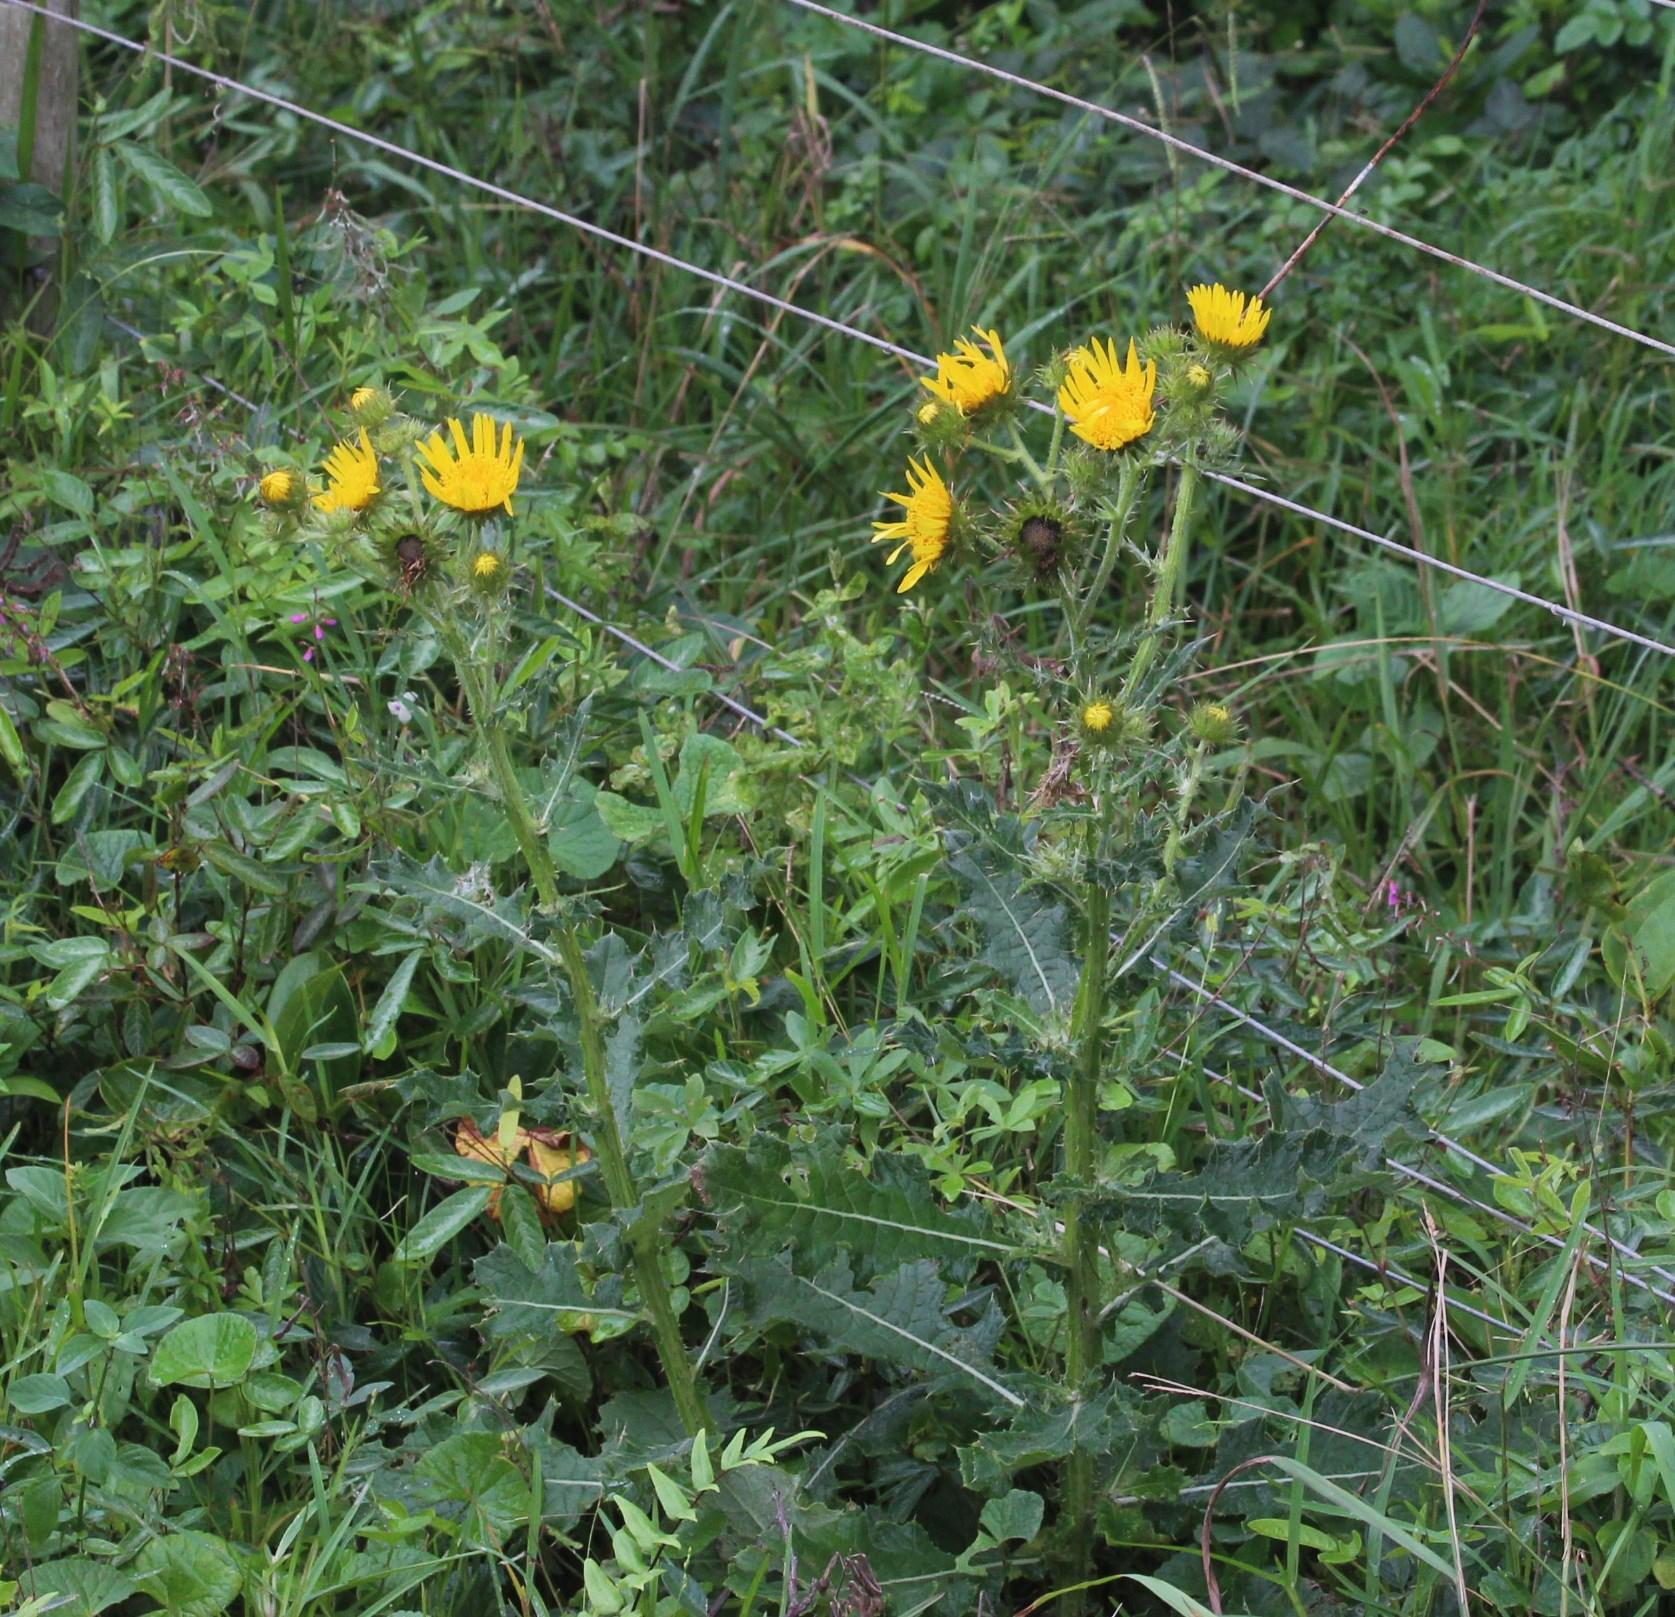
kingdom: Plantae
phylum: Tracheophyta
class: Magnoliopsida
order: Asterales
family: Asteraceae
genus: Berkheya
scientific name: Berkheya erysithales
